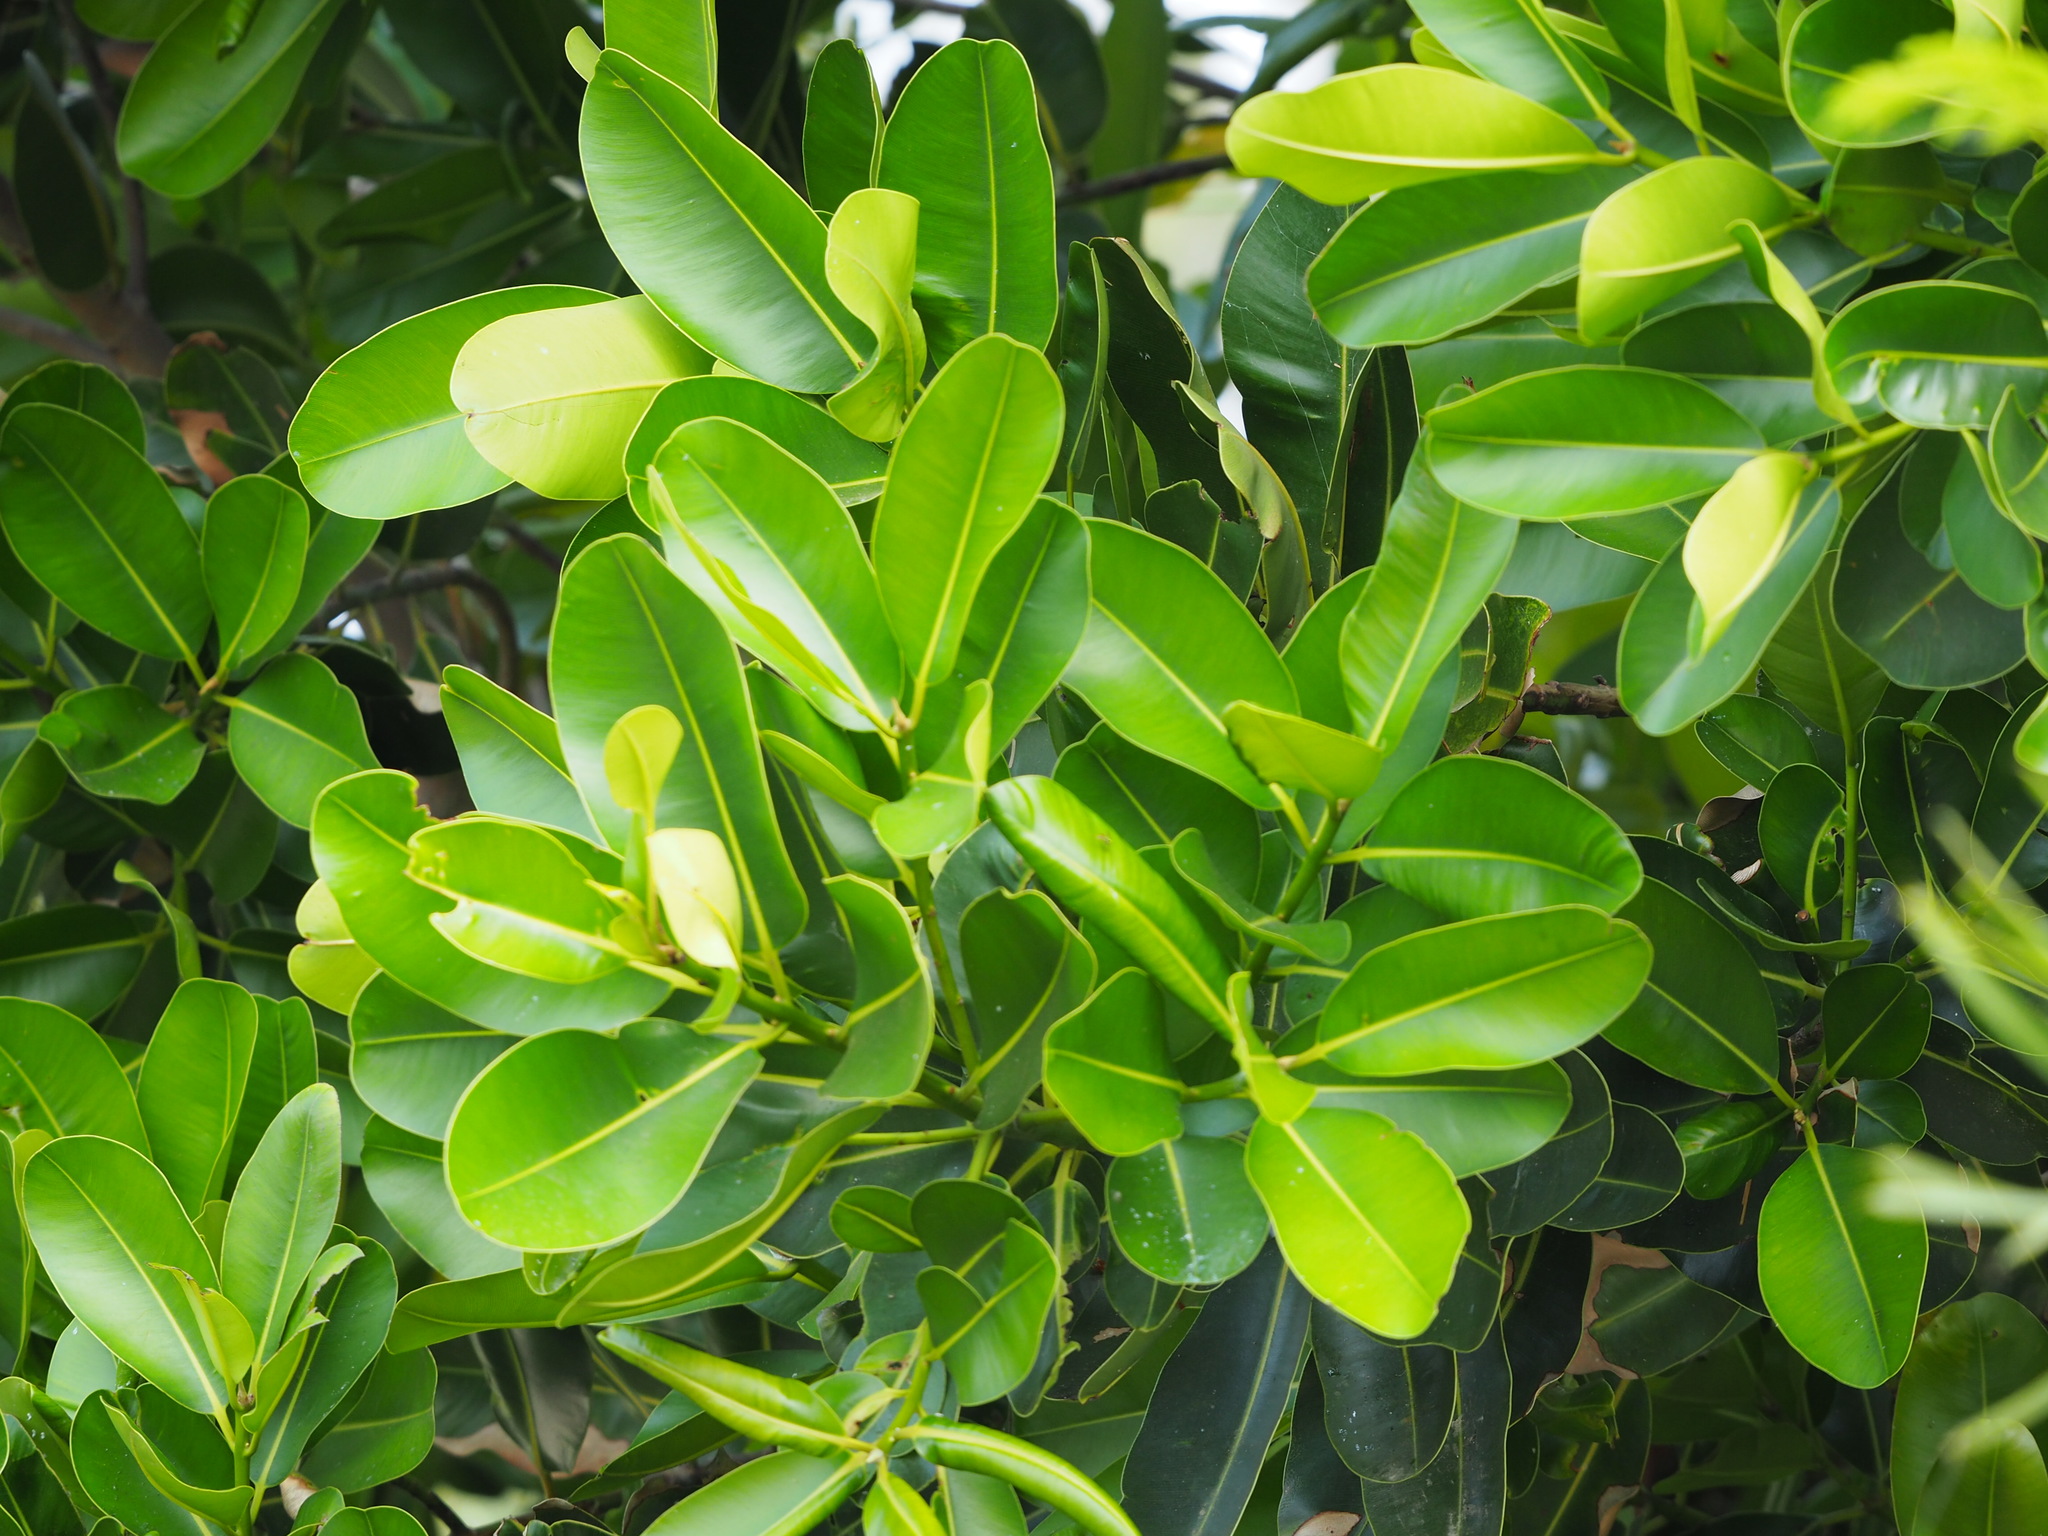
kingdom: Plantae
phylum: Tracheophyta
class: Magnoliopsida
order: Malpighiales
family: Calophyllaceae
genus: Calophyllum
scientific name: Calophyllum inophyllum
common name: Alexandrian laurel
